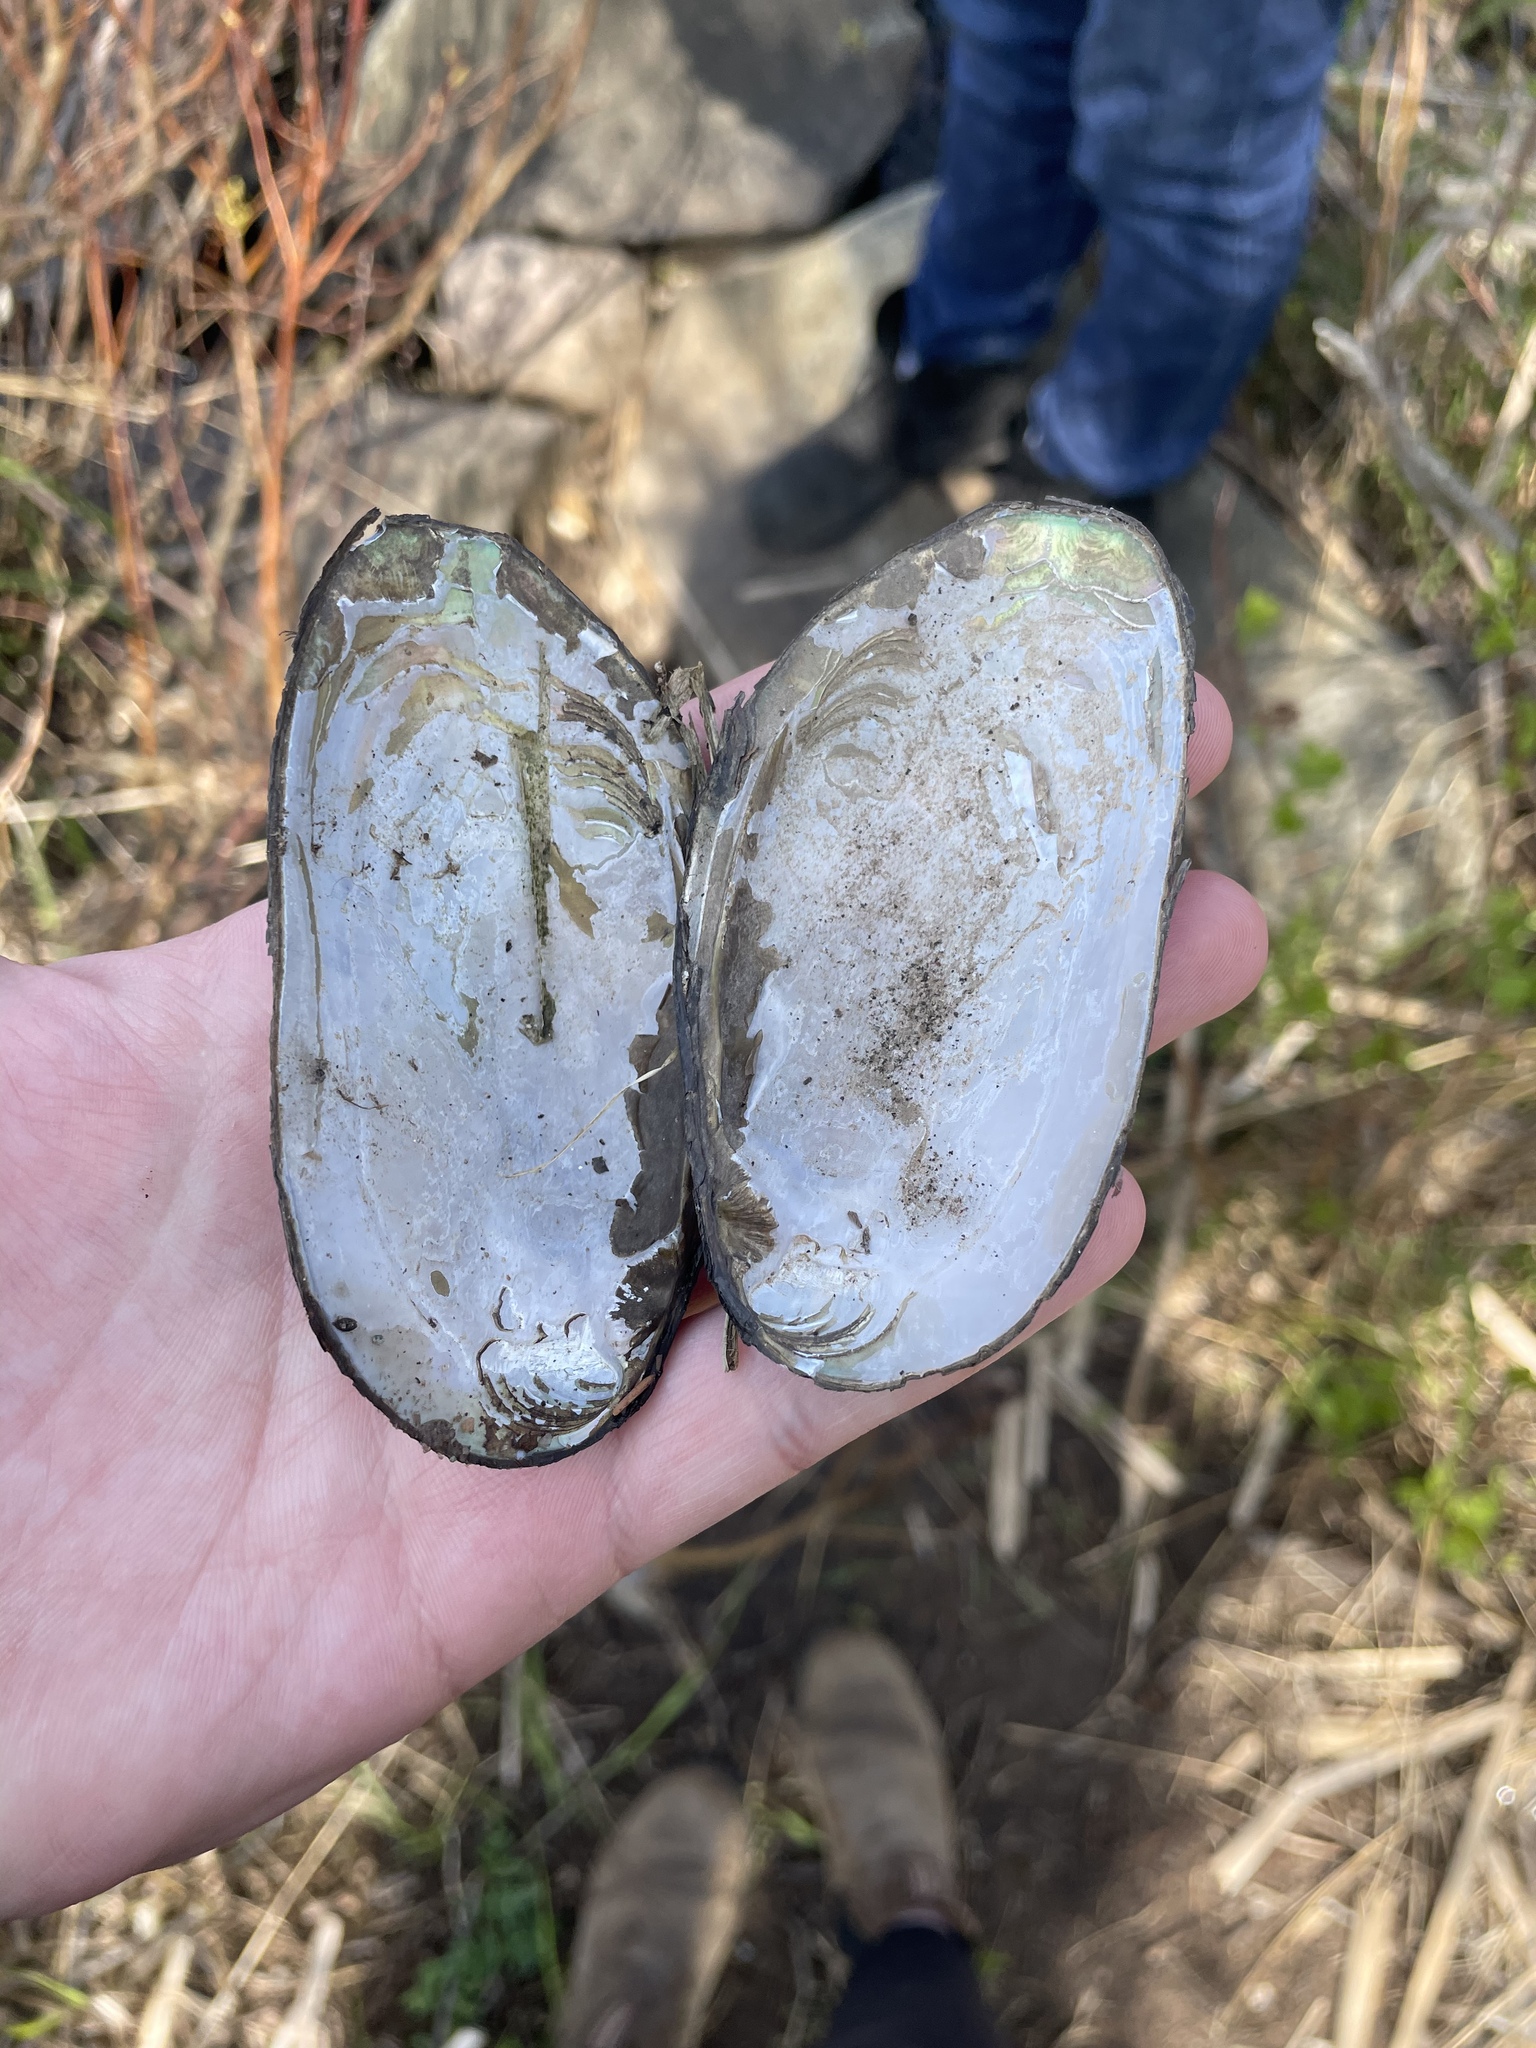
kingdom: Animalia
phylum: Mollusca
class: Bivalvia
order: Unionida
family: Unionidae
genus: Elliptio
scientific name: Elliptio complanata
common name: Eastern elliptio
